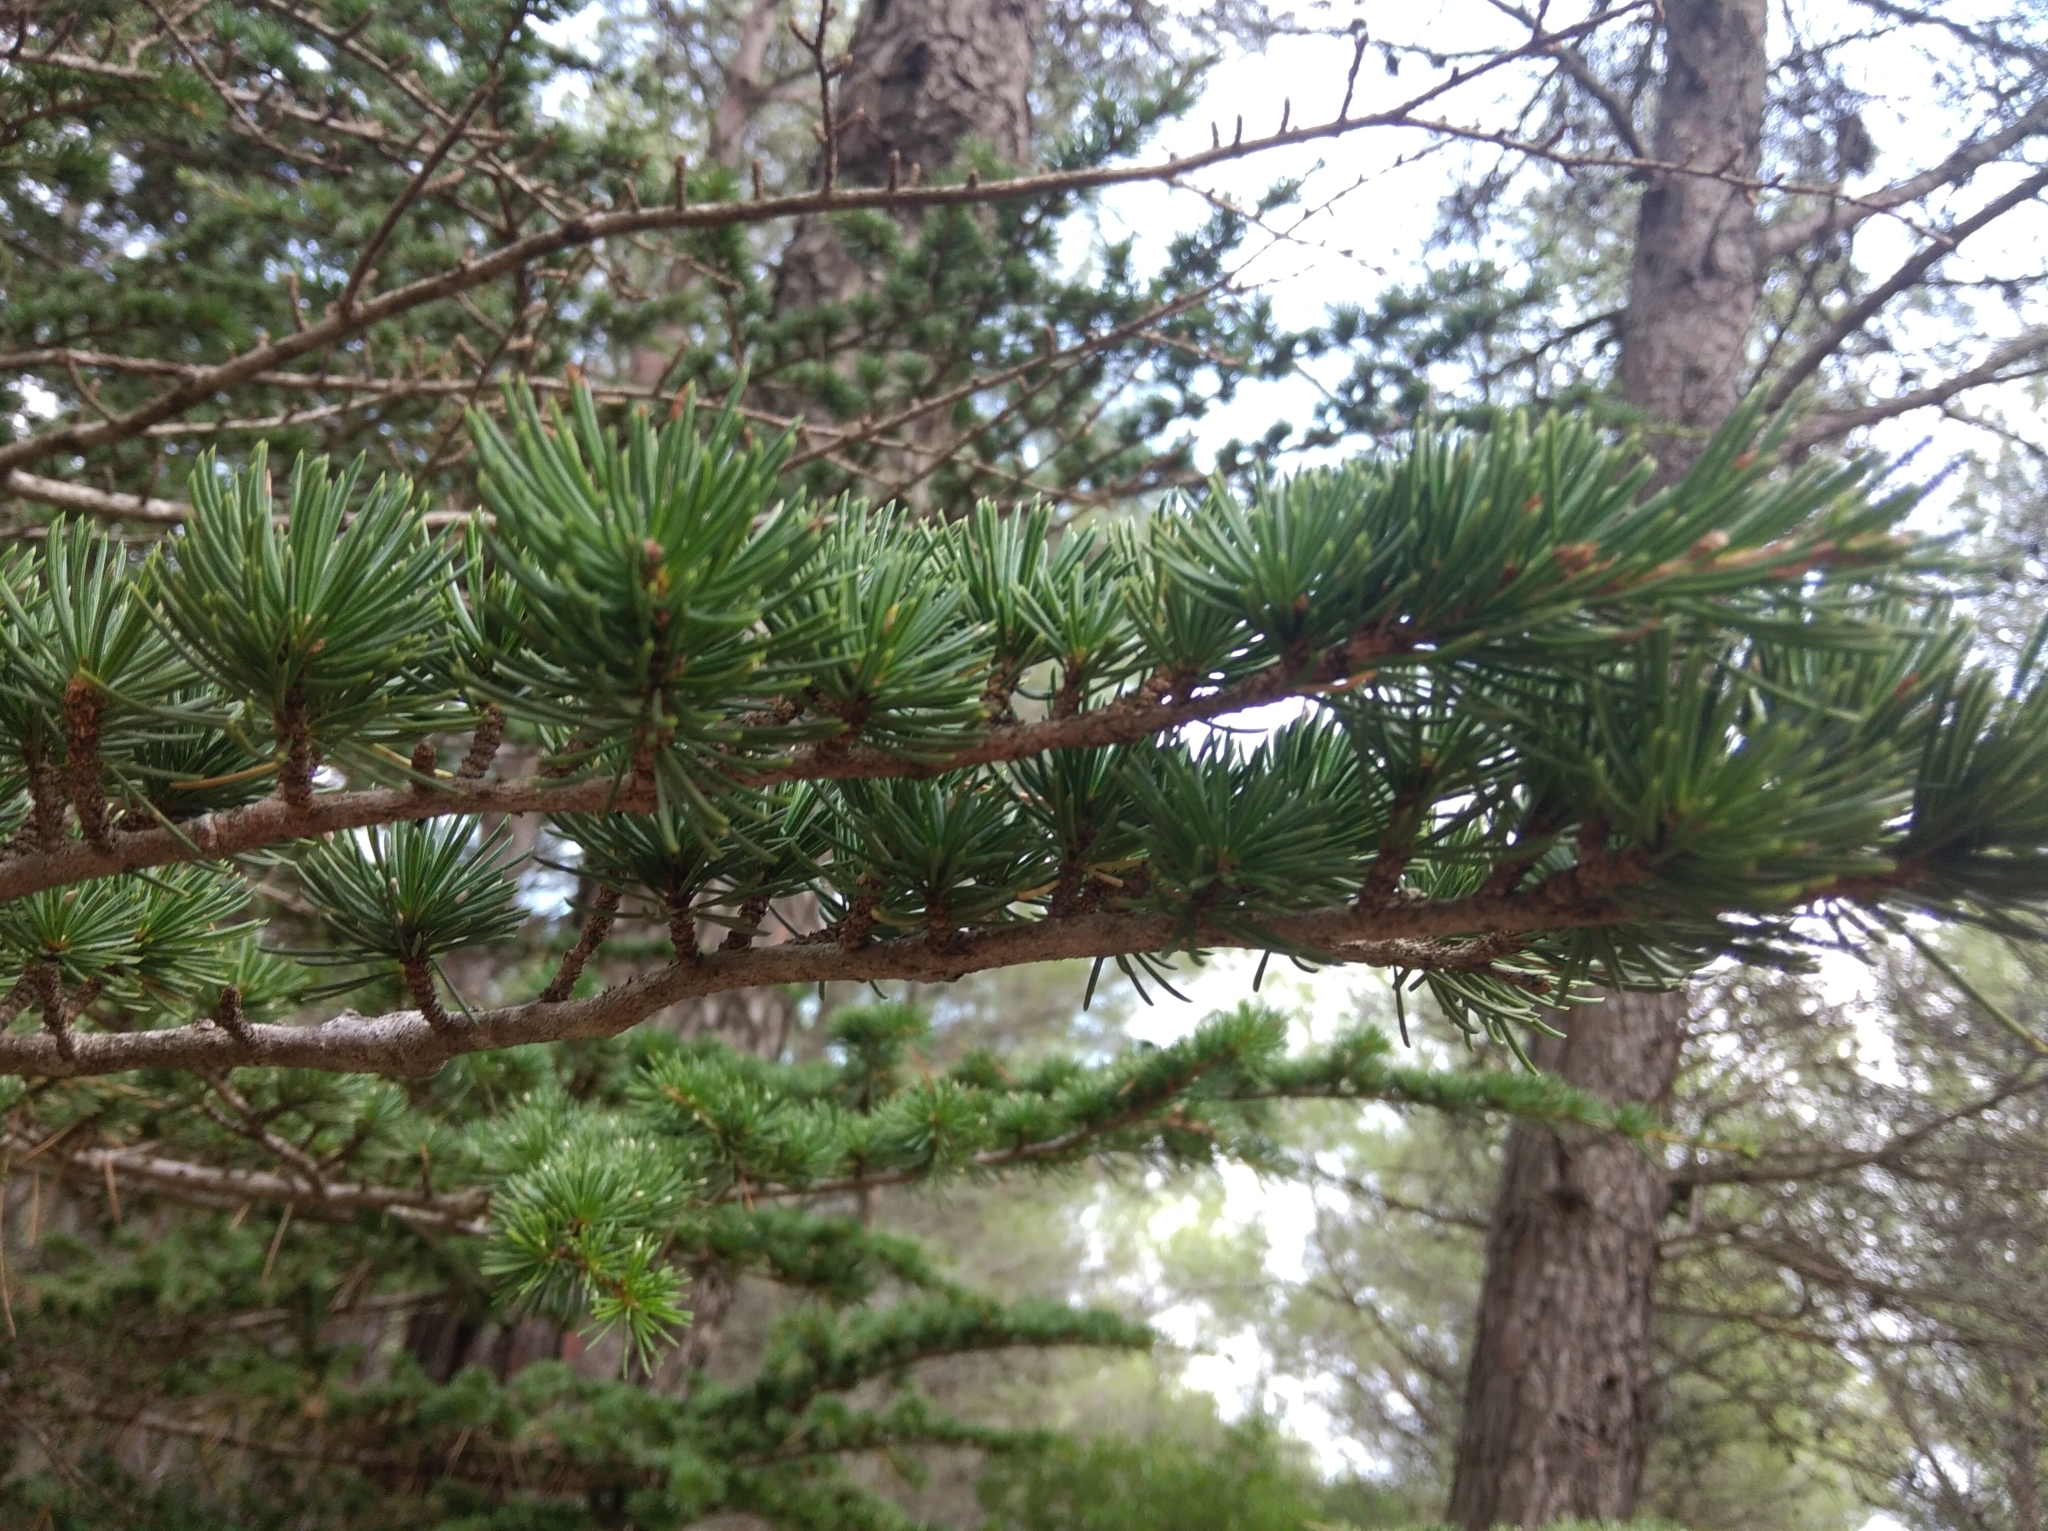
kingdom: Plantae
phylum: Tracheophyta
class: Pinopsida
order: Pinales
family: Pinaceae
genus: Cedrus
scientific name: Cedrus atlantica
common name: Atlas cedar
